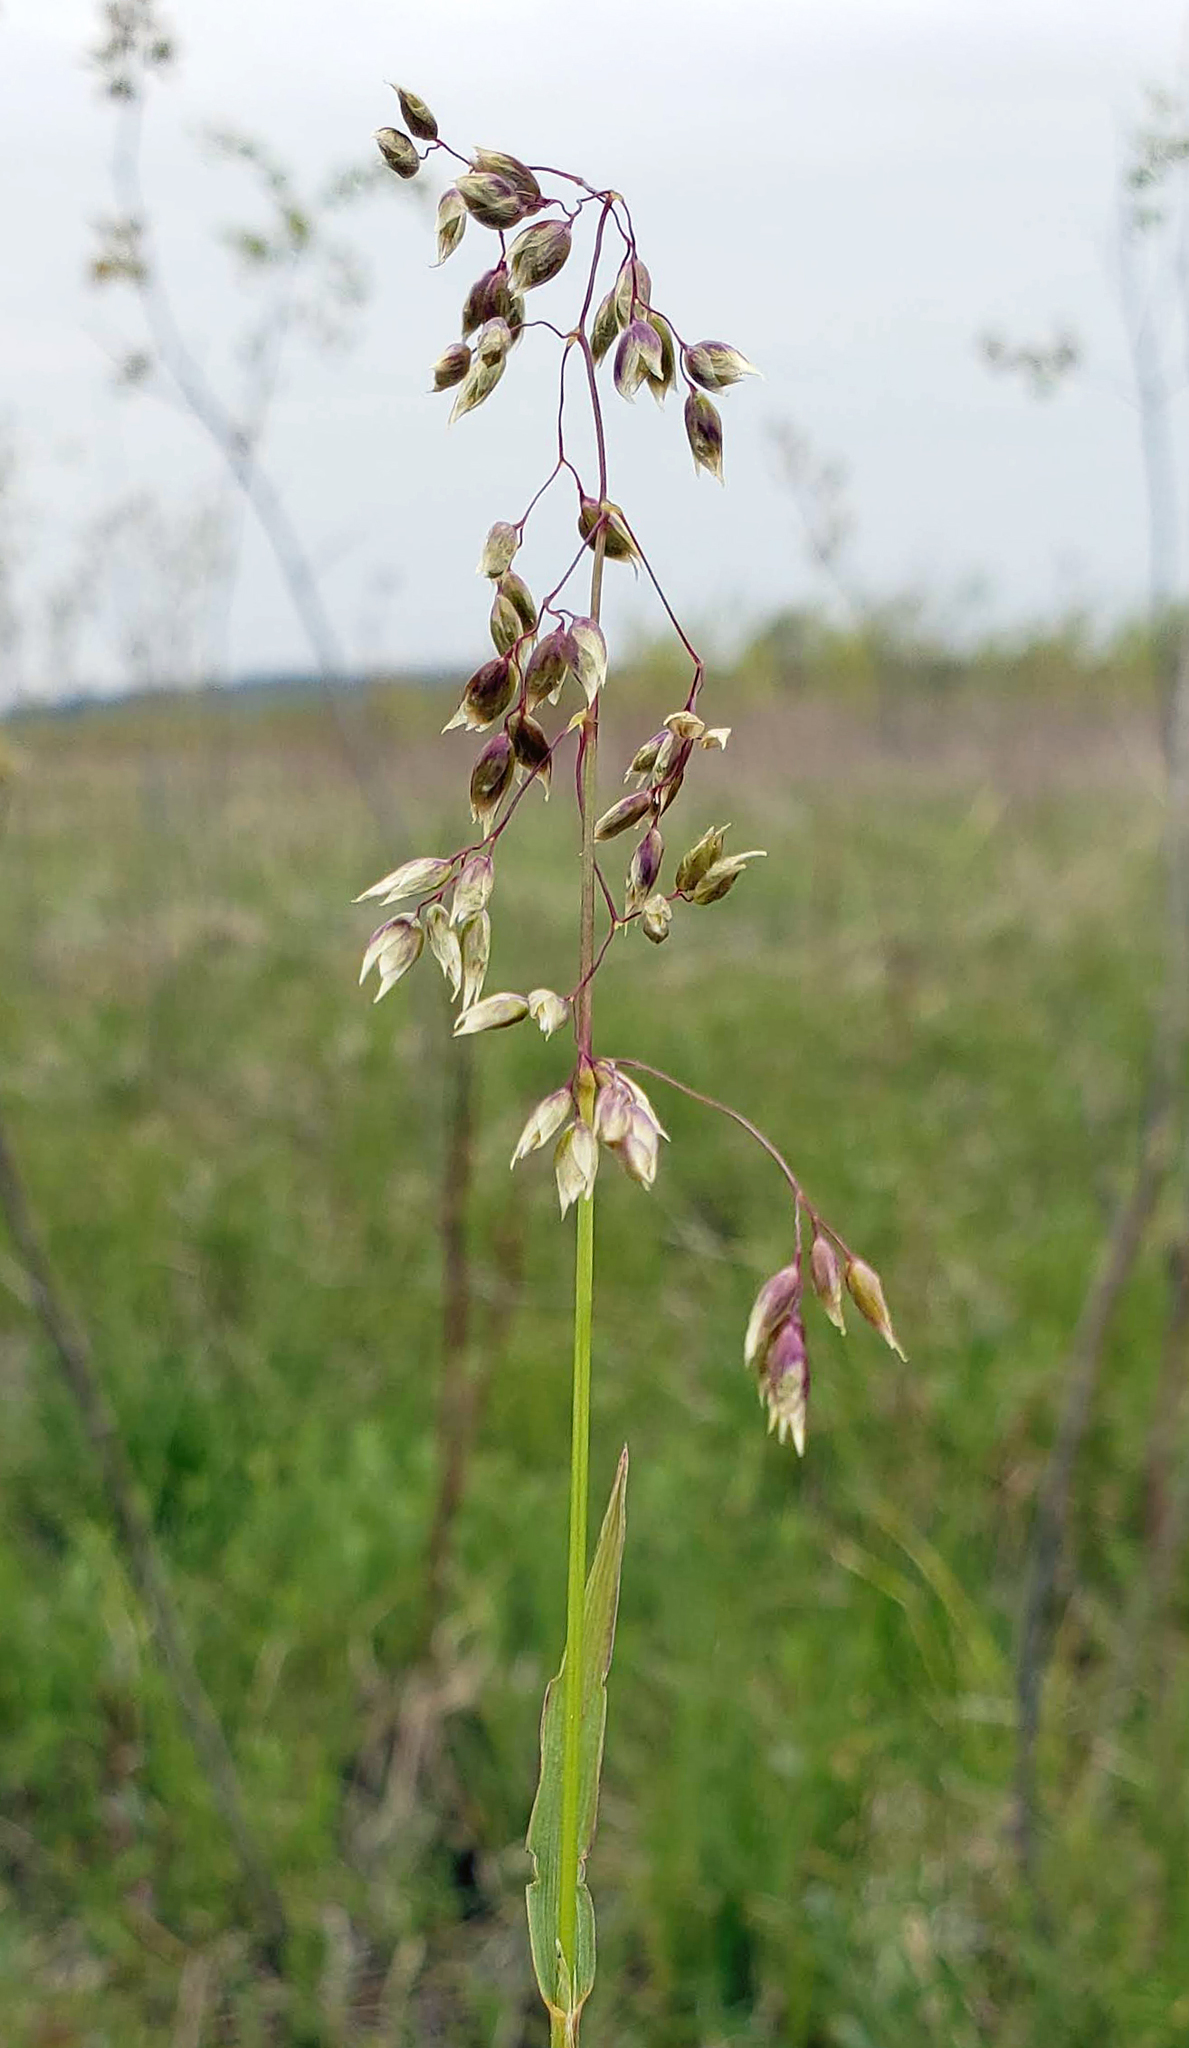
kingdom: Plantae
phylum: Tracheophyta
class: Liliopsida
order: Poales
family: Poaceae
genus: Anthoxanthum
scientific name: Anthoxanthum nitens
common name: Holy grass
